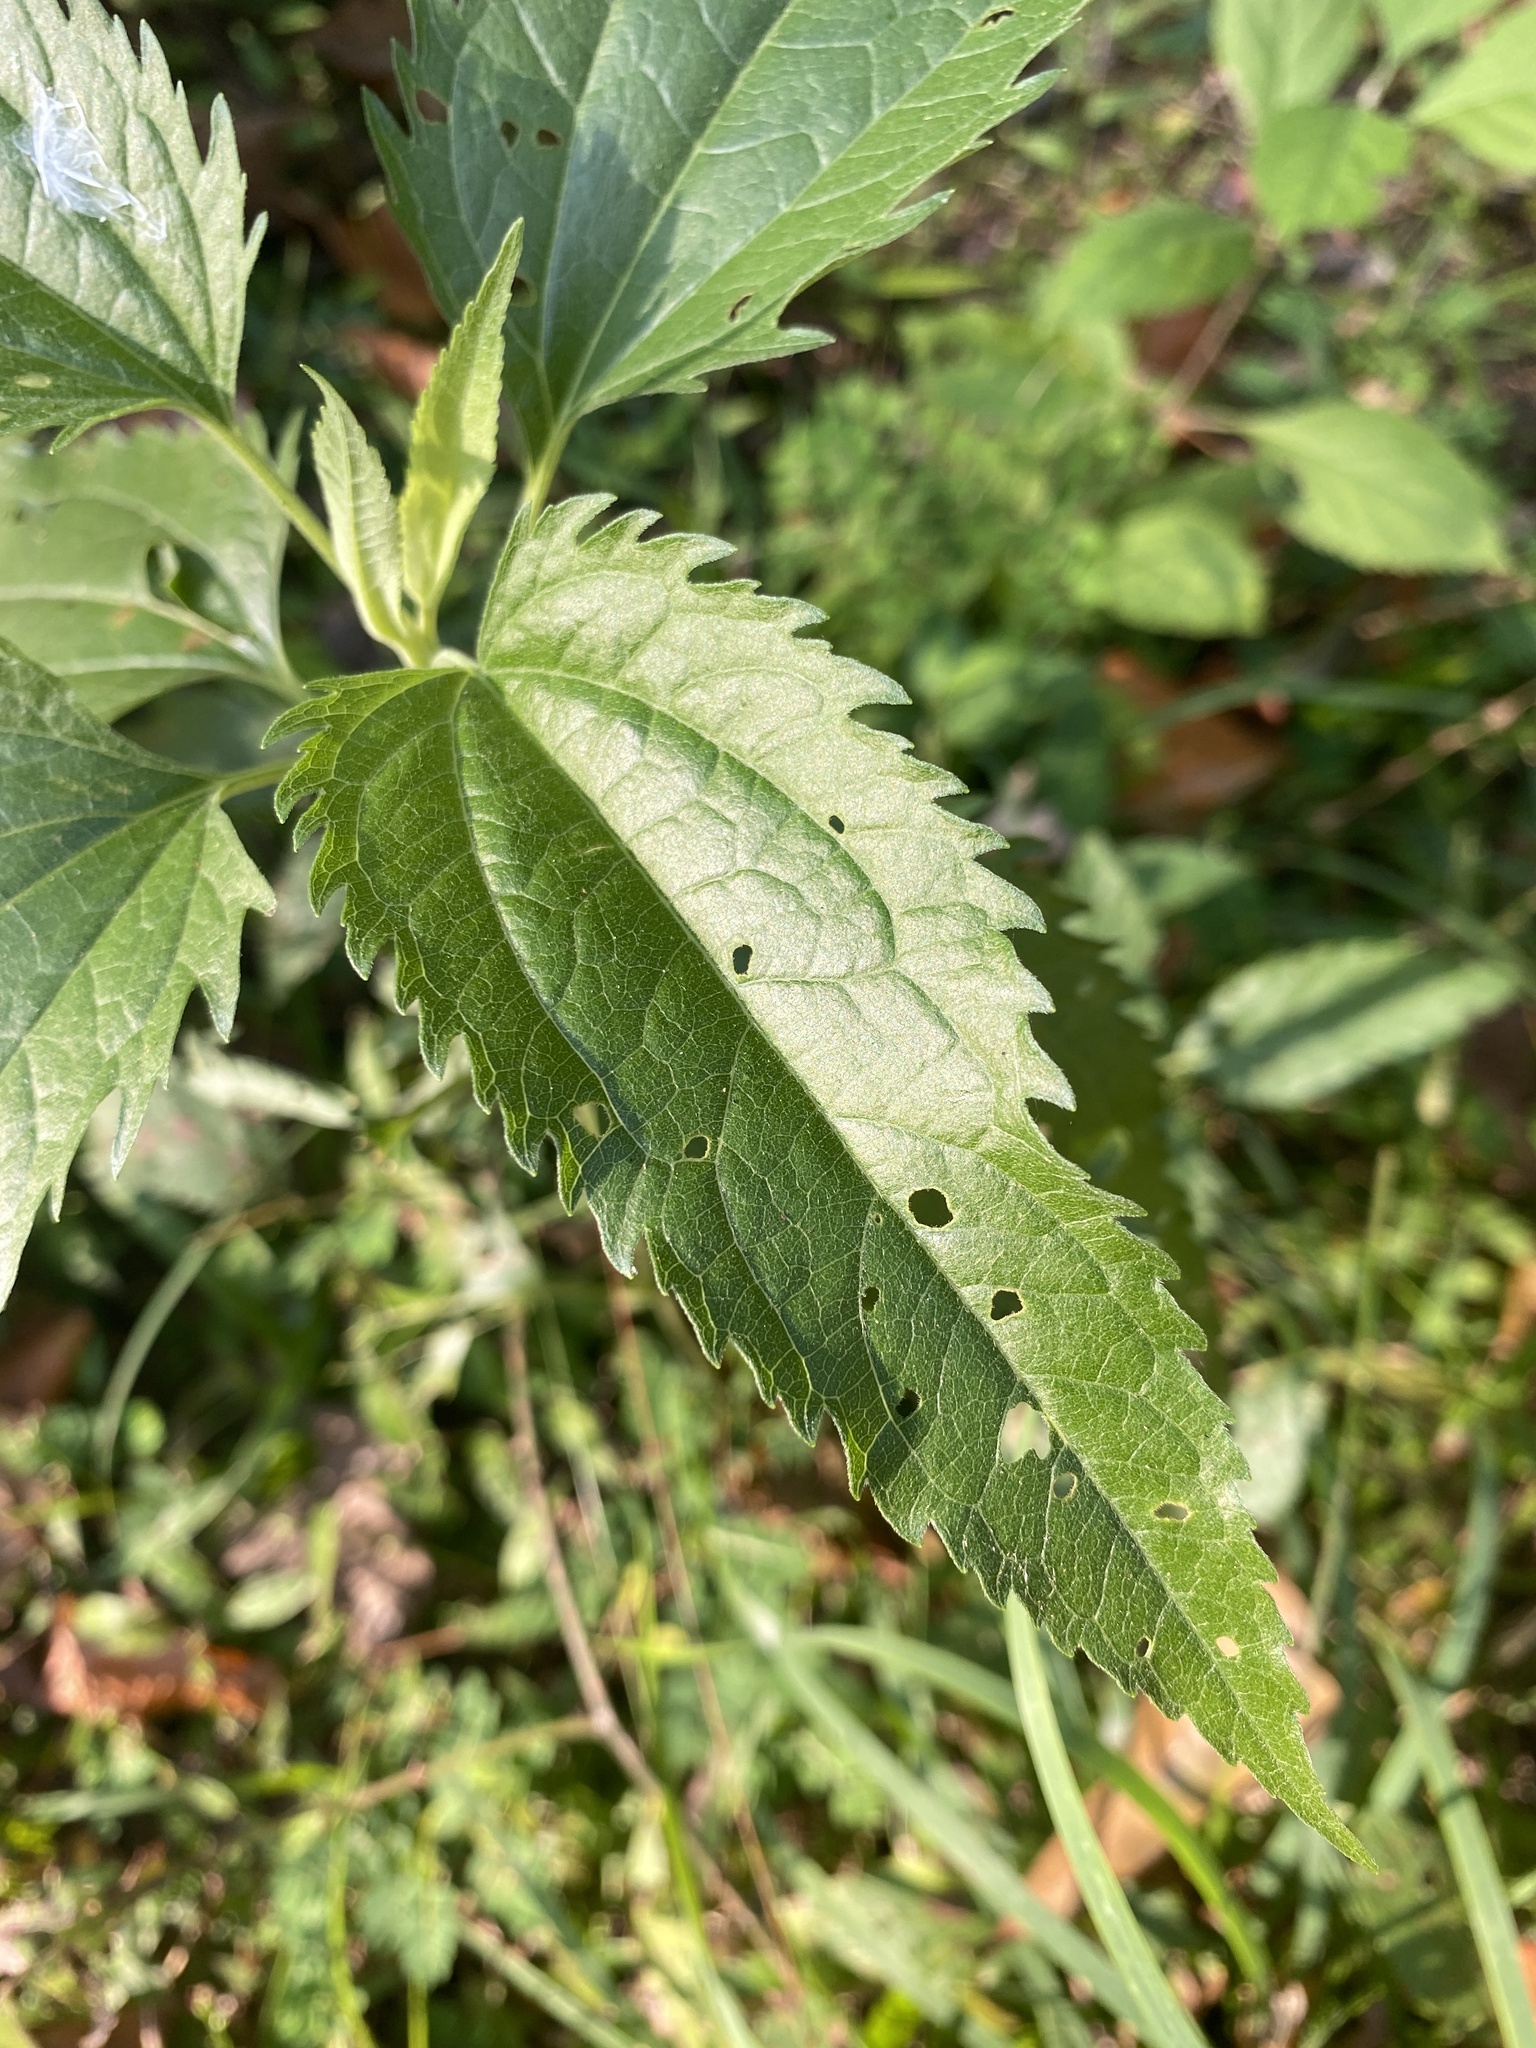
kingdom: Plantae
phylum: Tracheophyta
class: Magnoliopsida
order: Asterales
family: Asteraceae
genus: Eupatorium
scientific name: Eupatorium serotinum
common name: Late boneset
